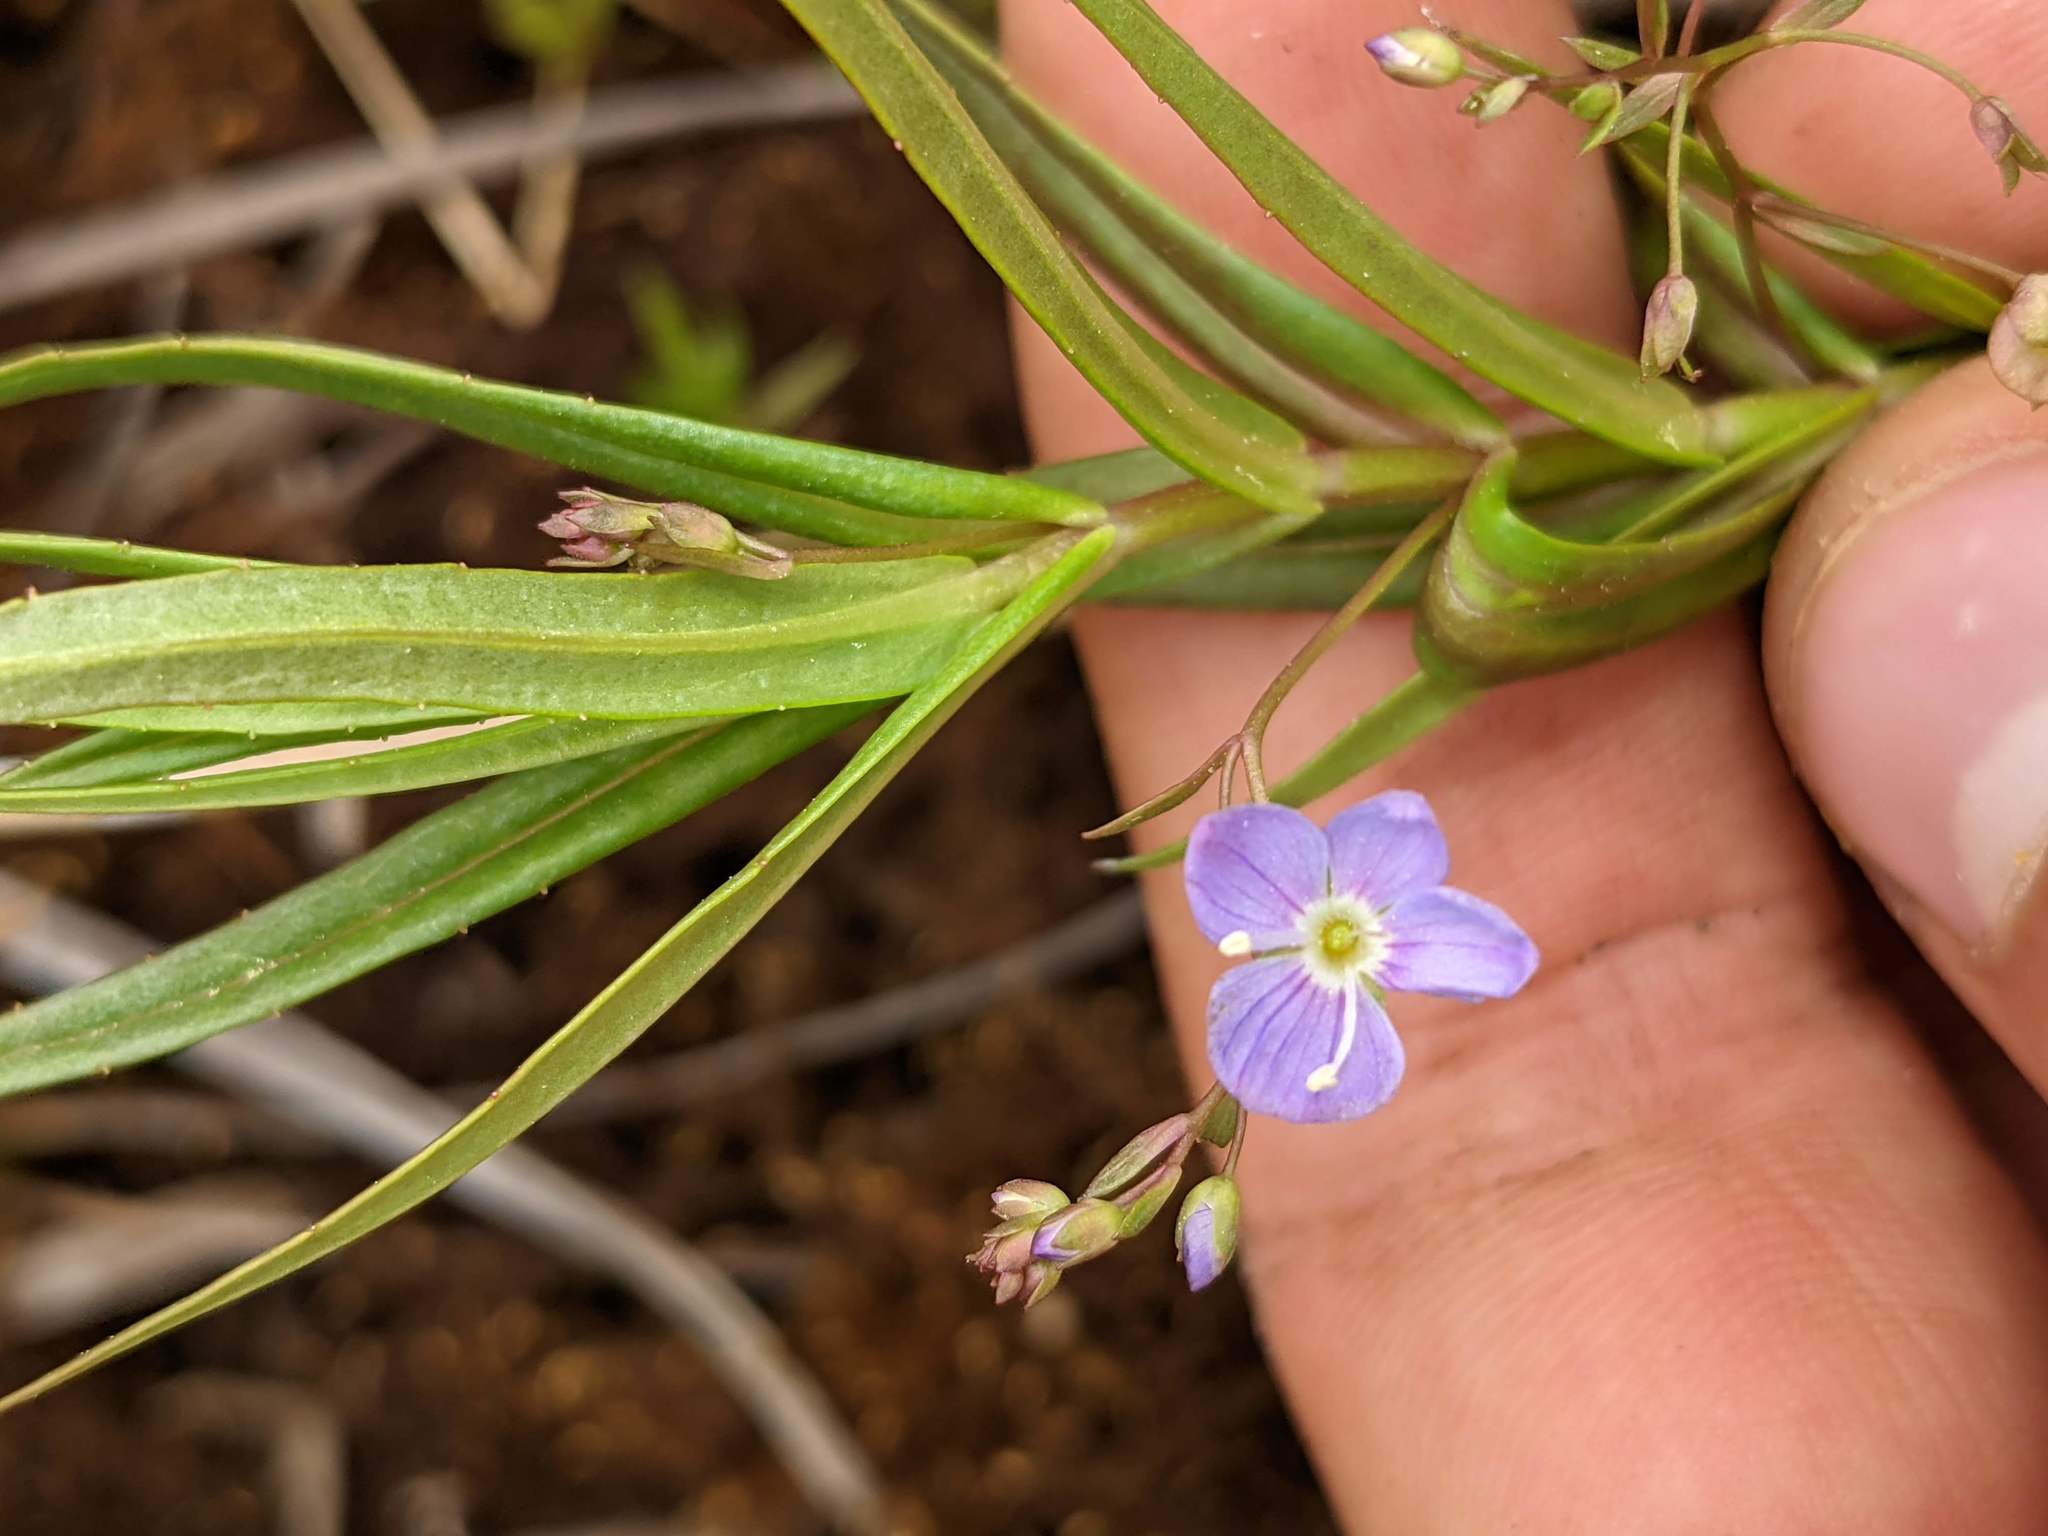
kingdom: Plantae
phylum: Tracheophyta
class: Magnoliopsida
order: Lamiales
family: Plantaginaceae
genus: Veronica
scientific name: Veronica scutellata
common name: Marsh speedwell
